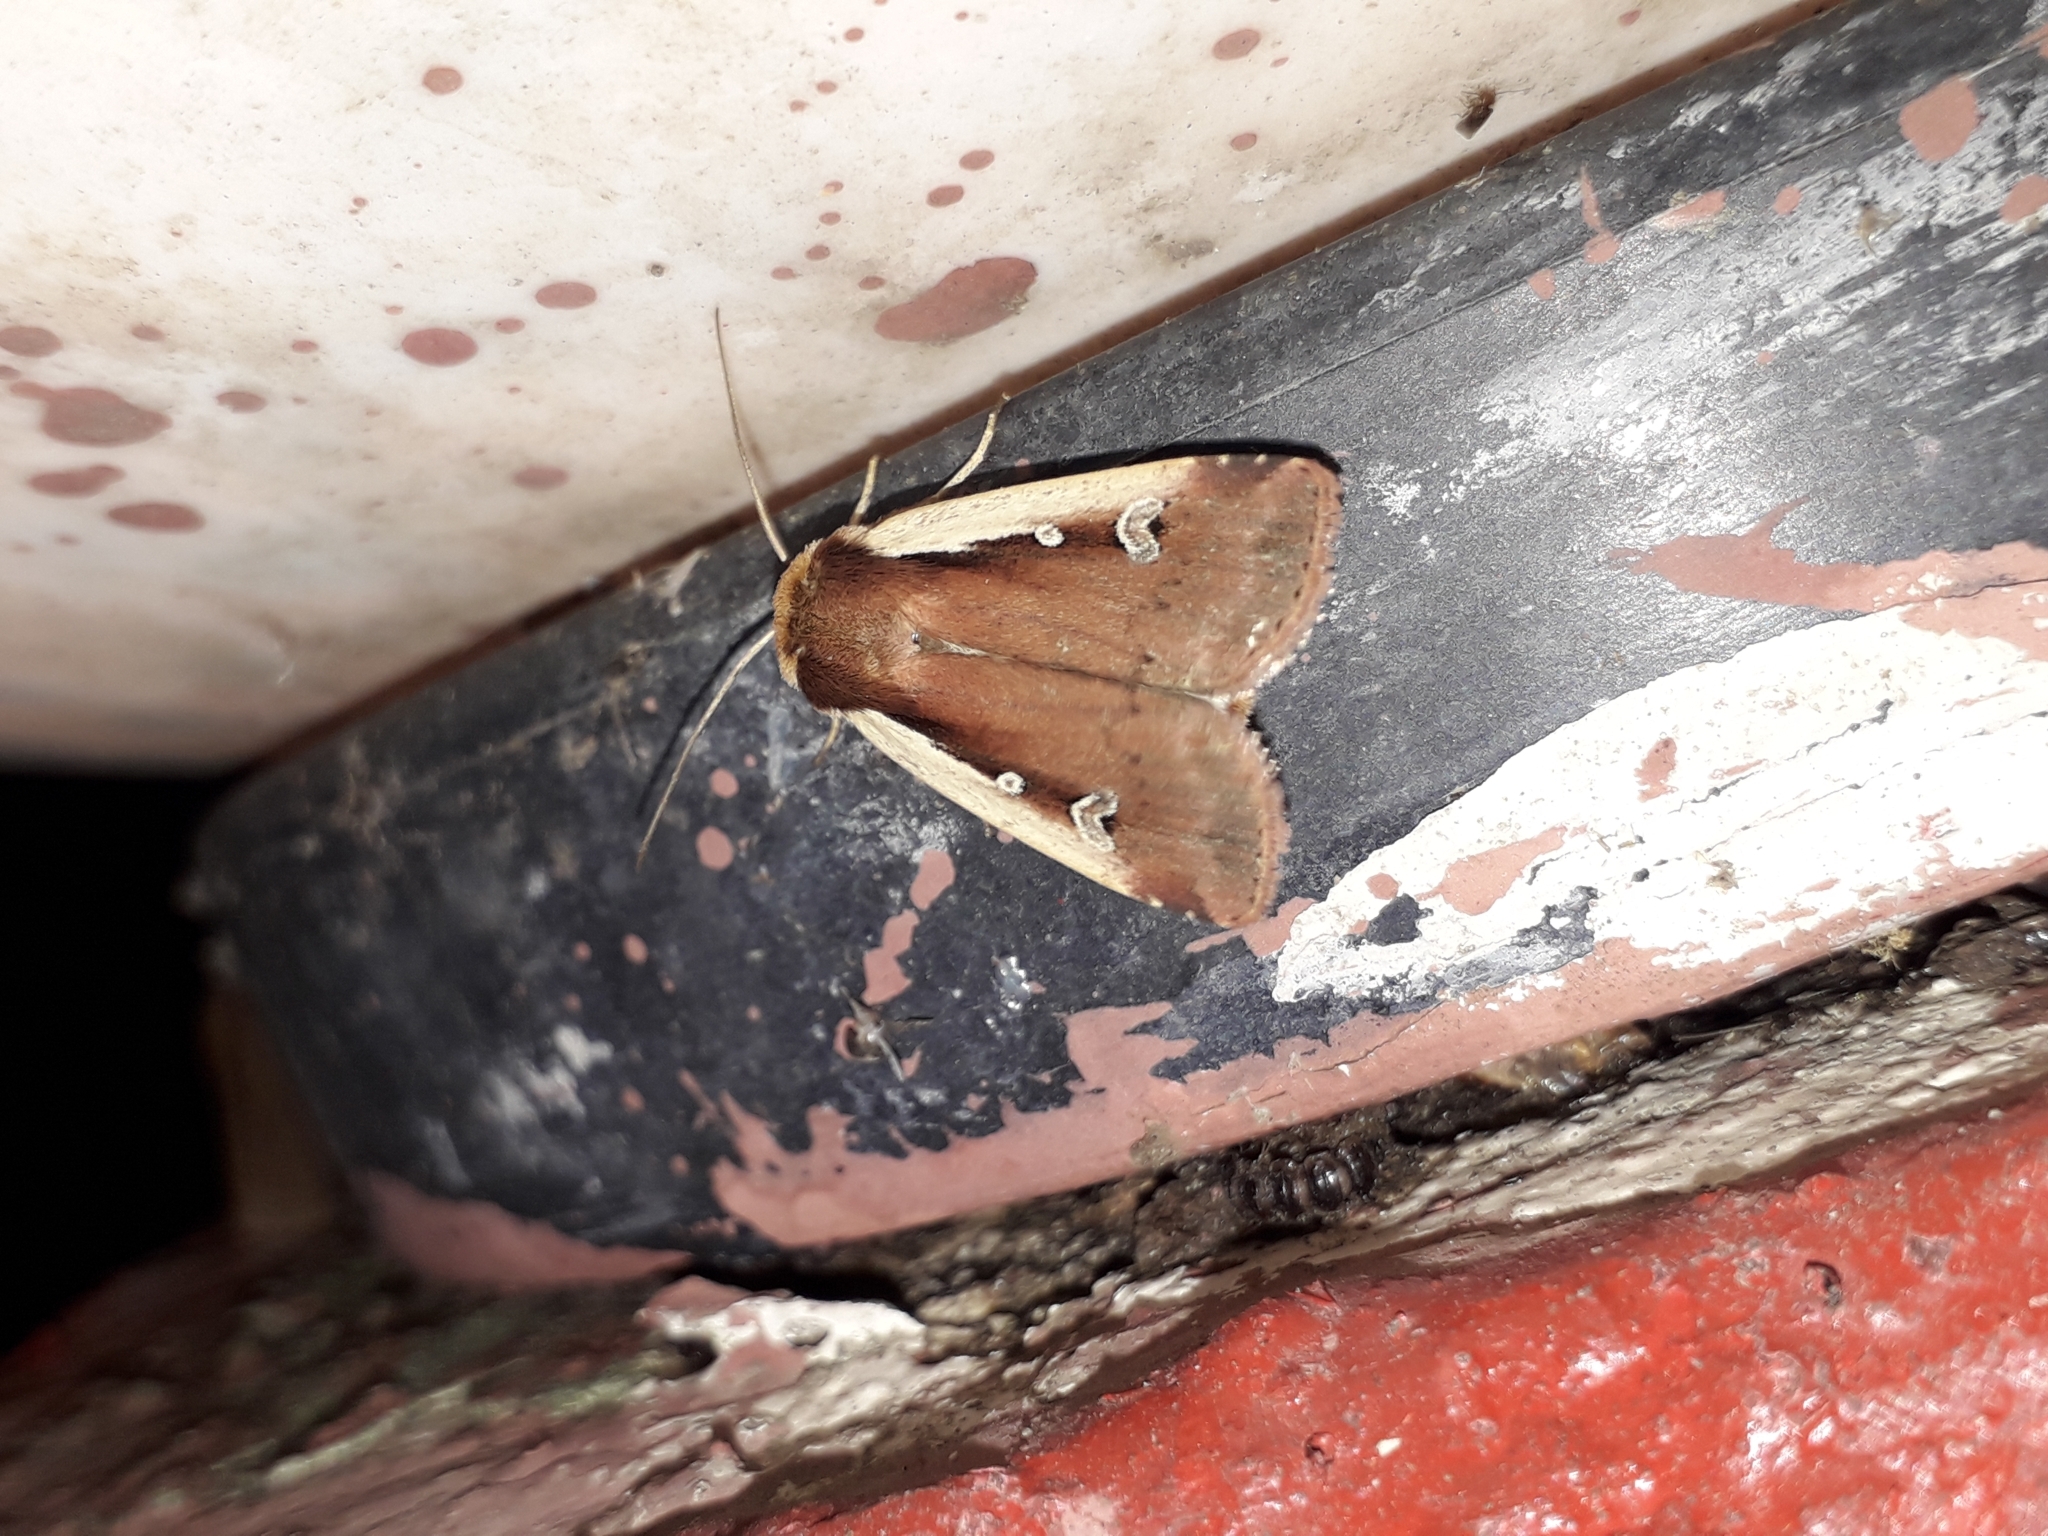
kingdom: Animalia
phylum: Arthropoda
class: Insecta
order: Lepidoptera
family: Noctuidae
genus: Ochropleura
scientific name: Ochropleura plecta
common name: Flame shoulder
